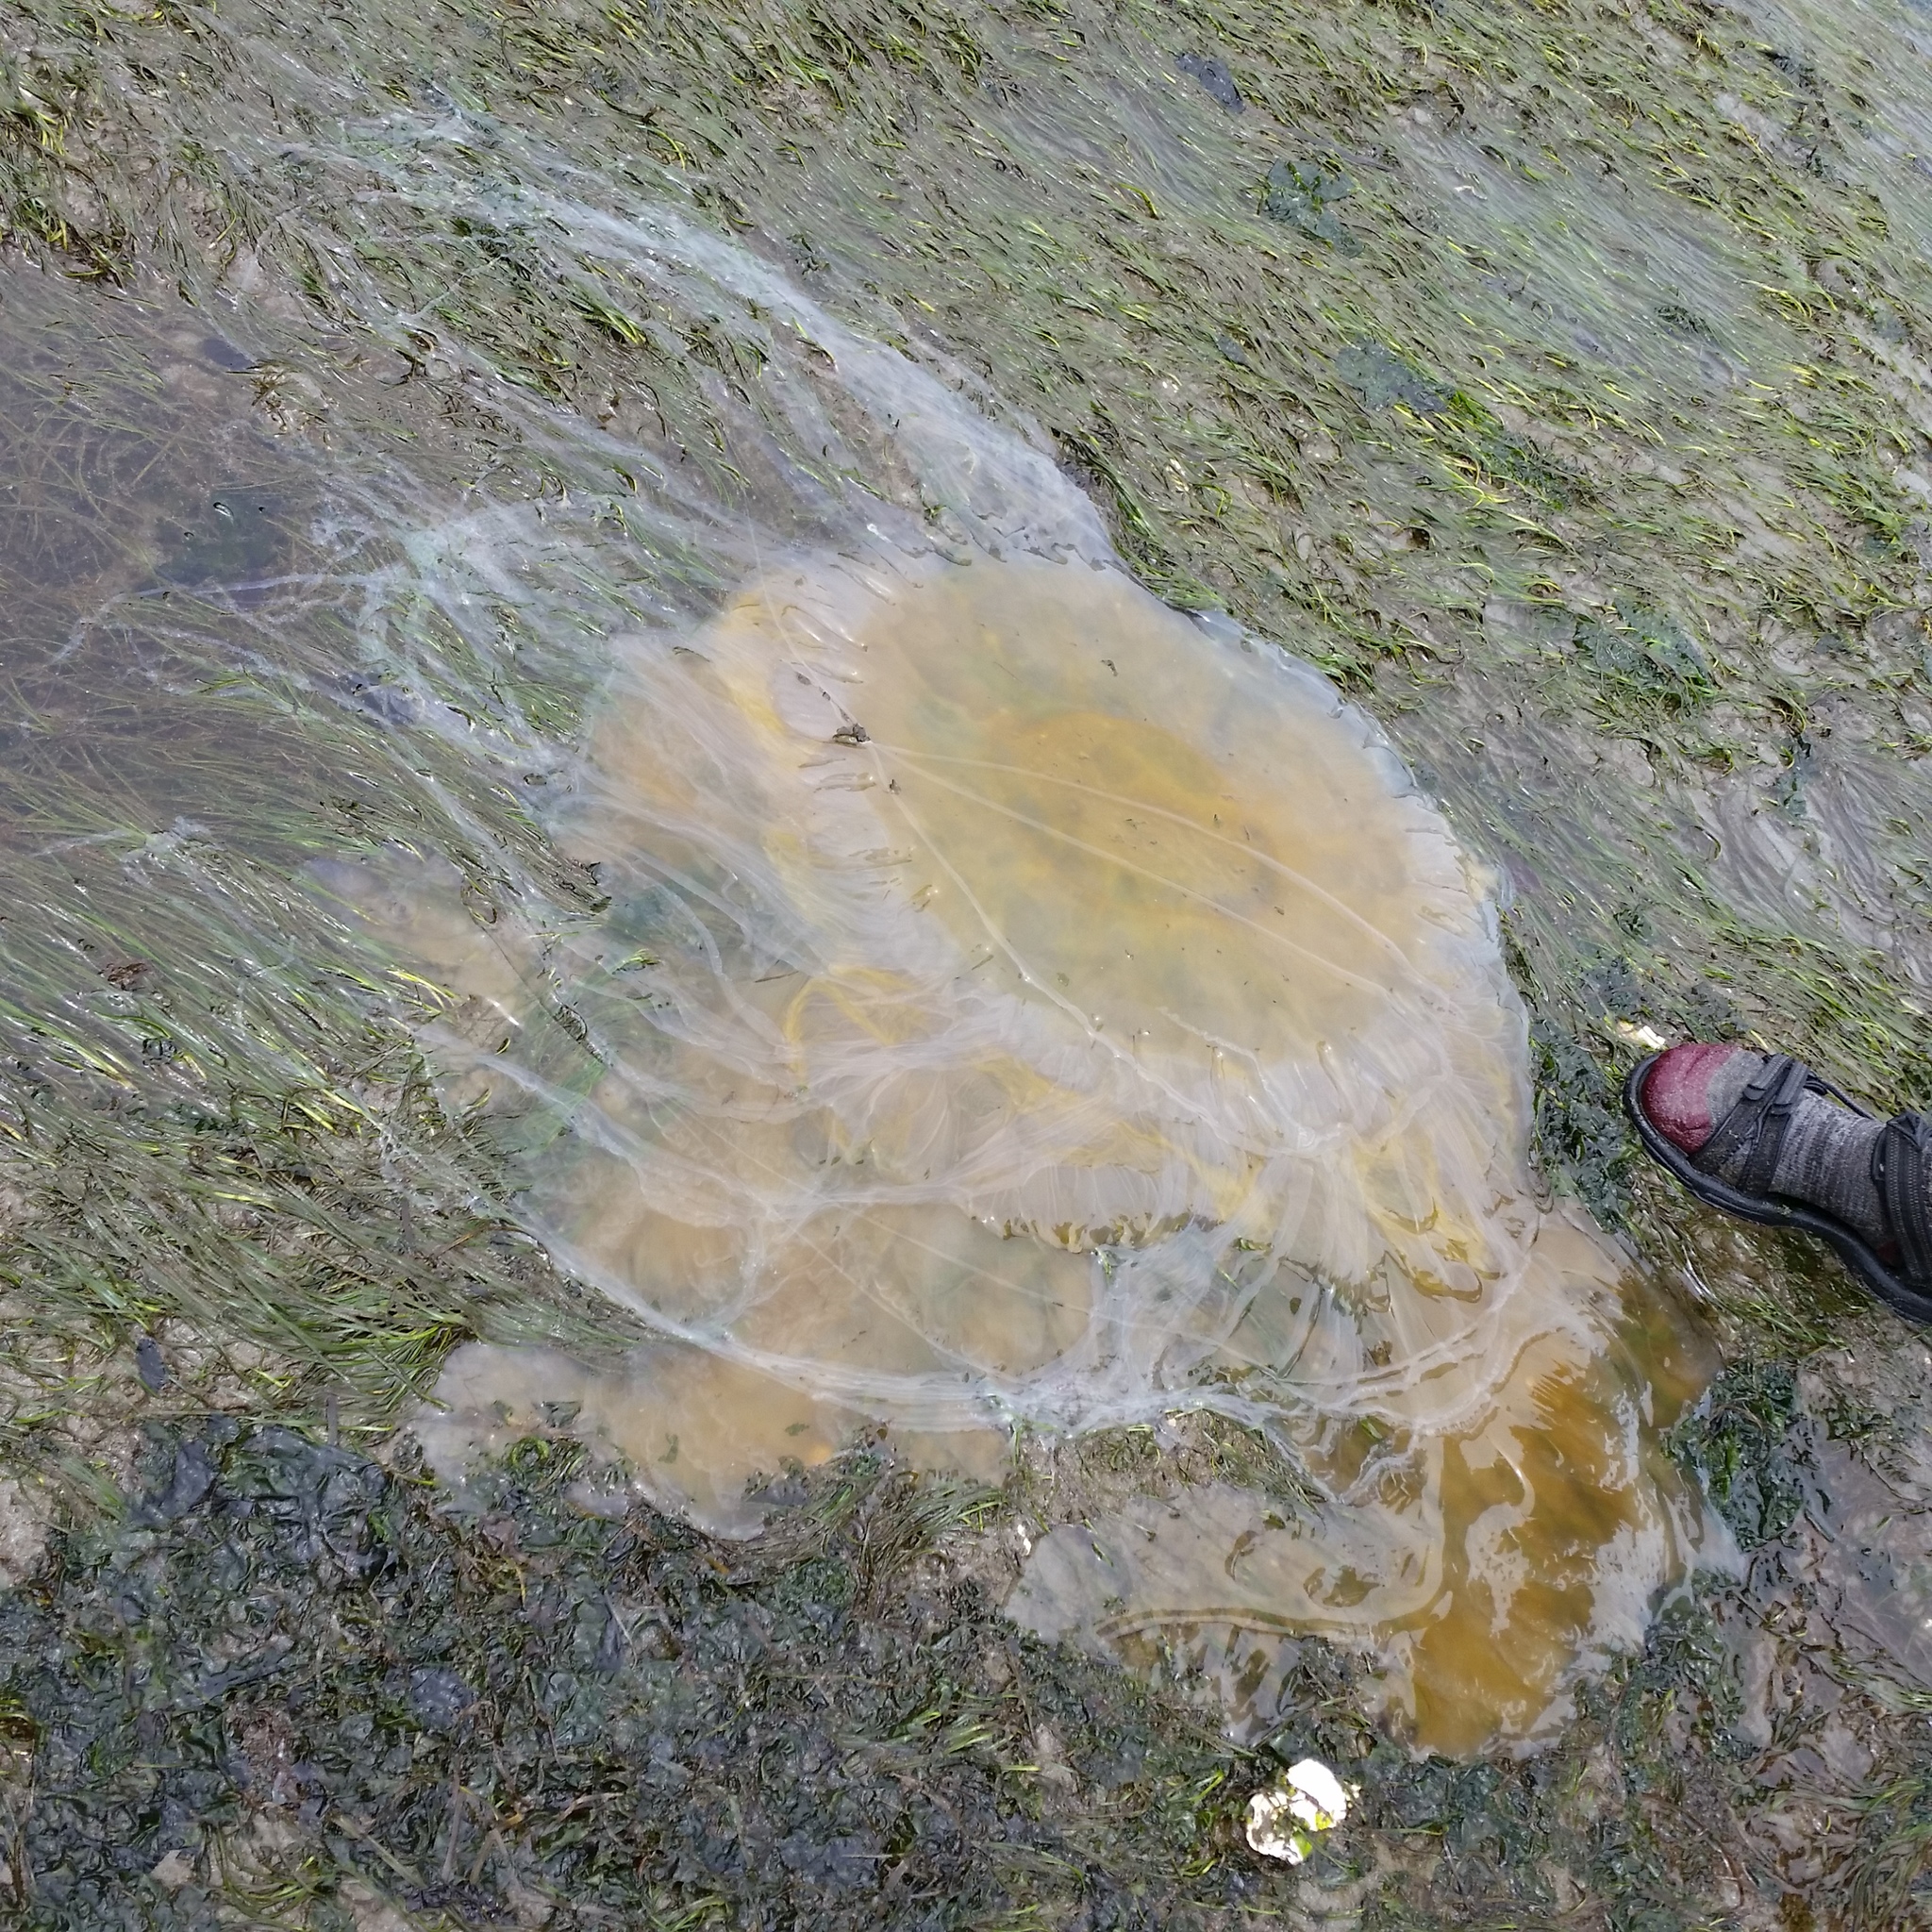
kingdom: Animalia
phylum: Cnidaria
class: Scyphozoa
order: Semaeostomeae
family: Phacellophoridae
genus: Phacellophora
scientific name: Phacellophora camtschatica
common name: Fried-egg jellyfish
